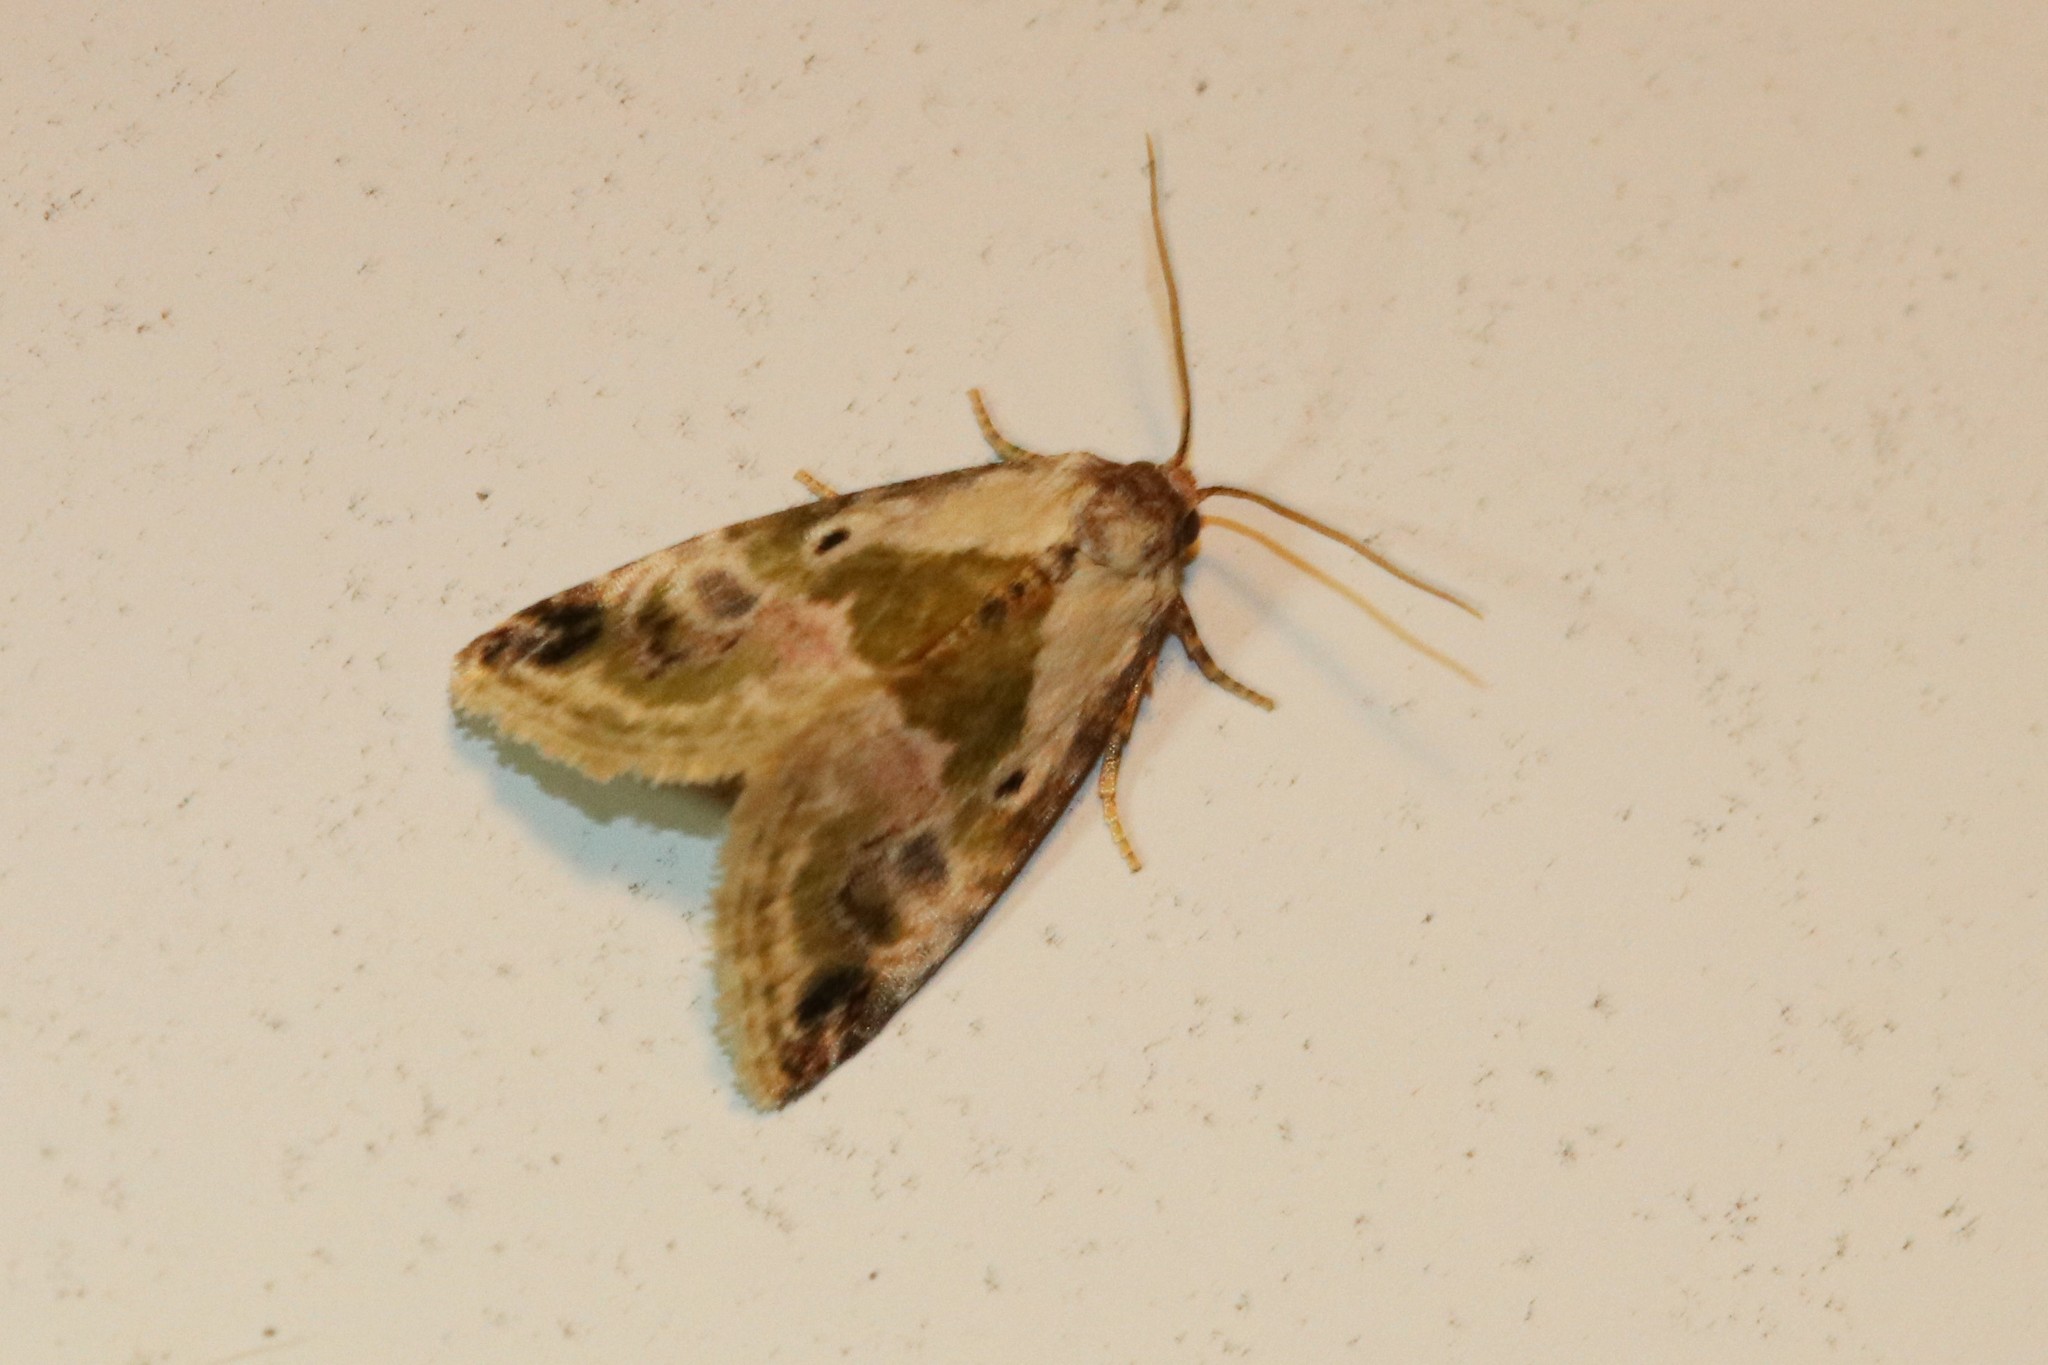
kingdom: Animalia
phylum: Arthropoda
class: Insecta
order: Lepidoptera
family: Noctuidae
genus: Maliattha
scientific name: Maliattha synochitis
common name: Black-dotted glyph
